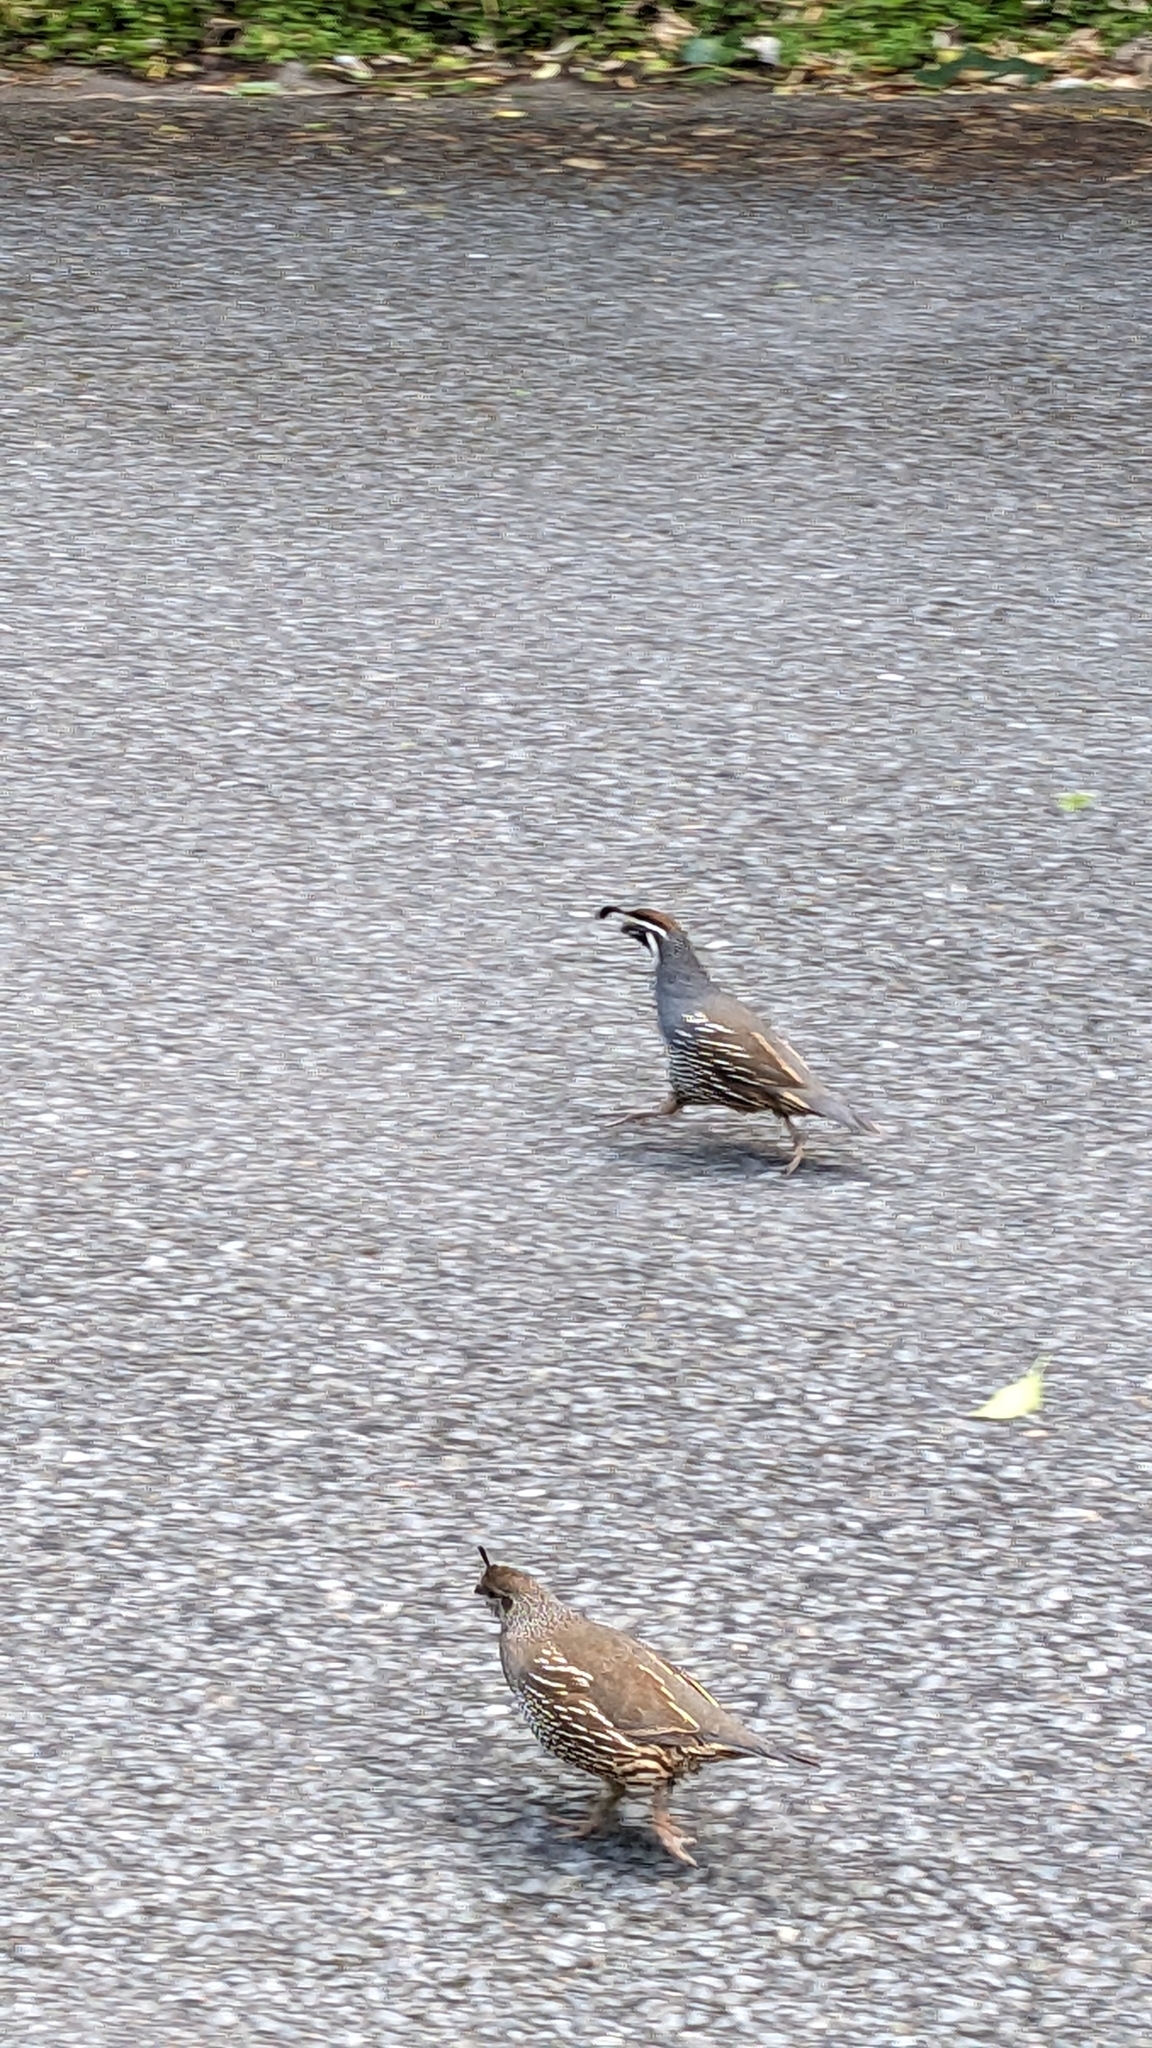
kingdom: Animalia
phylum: Chordata
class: Aves
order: Galliformes
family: Odontophoridae
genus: Callipepla
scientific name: Callipepla californica
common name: California quail
